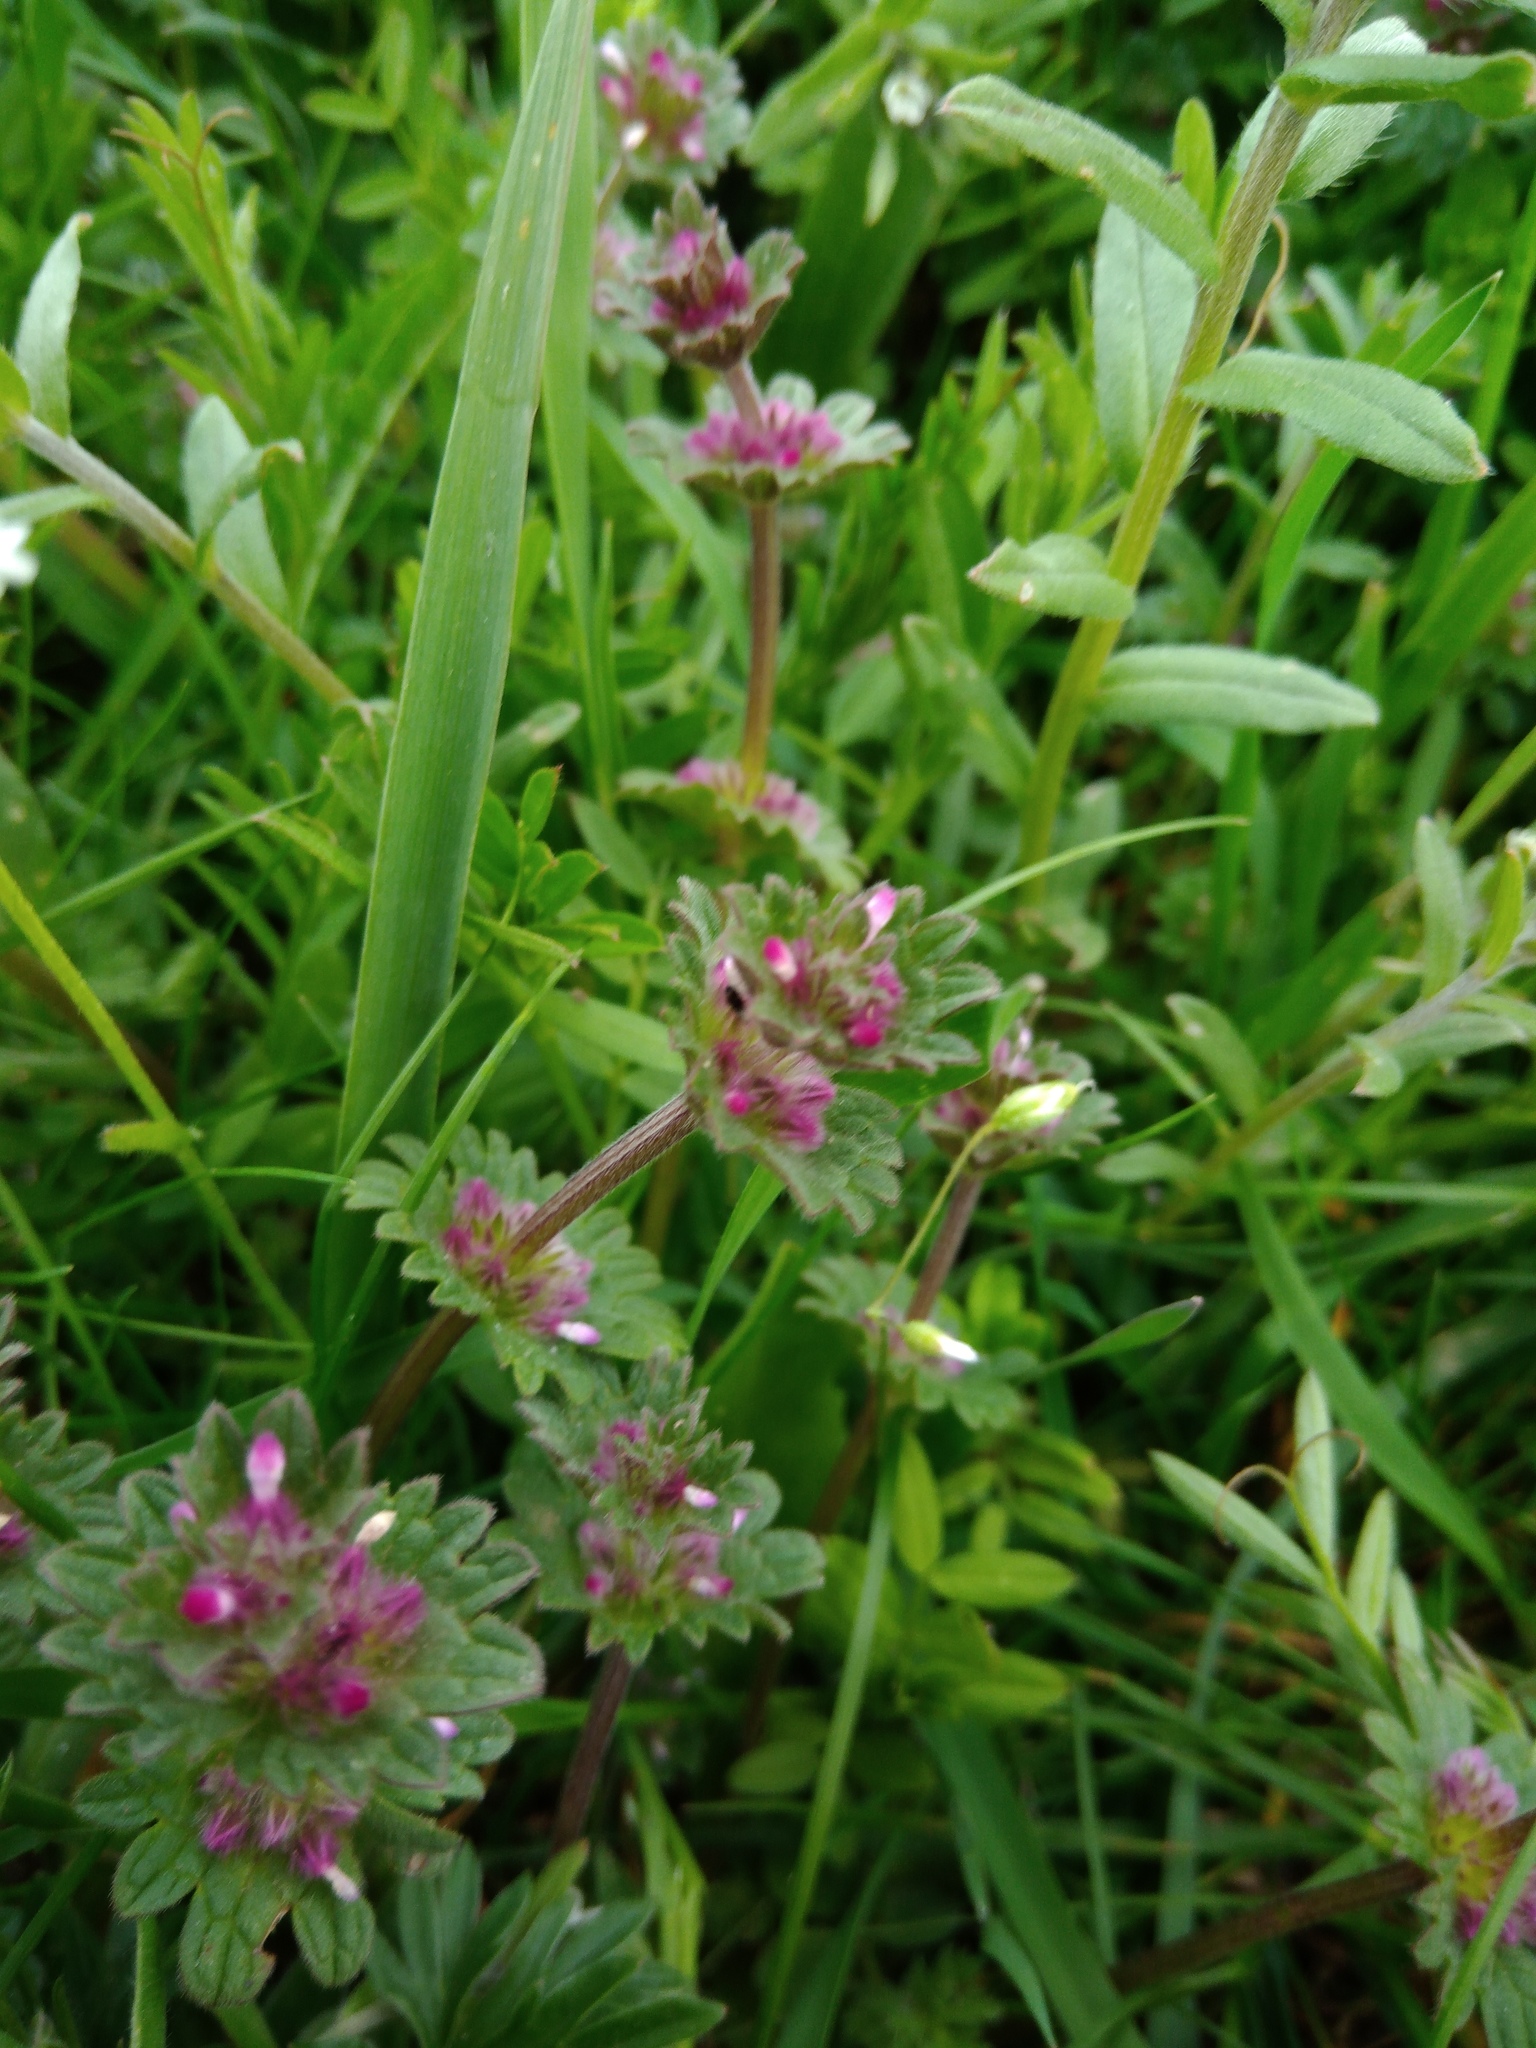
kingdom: Plantae
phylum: Tracheophyta
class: Magnoliopsida
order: Lamiales
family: Lamiaceae
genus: Lamium
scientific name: Lamium amplexicaule
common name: Henbit dead-nettle
